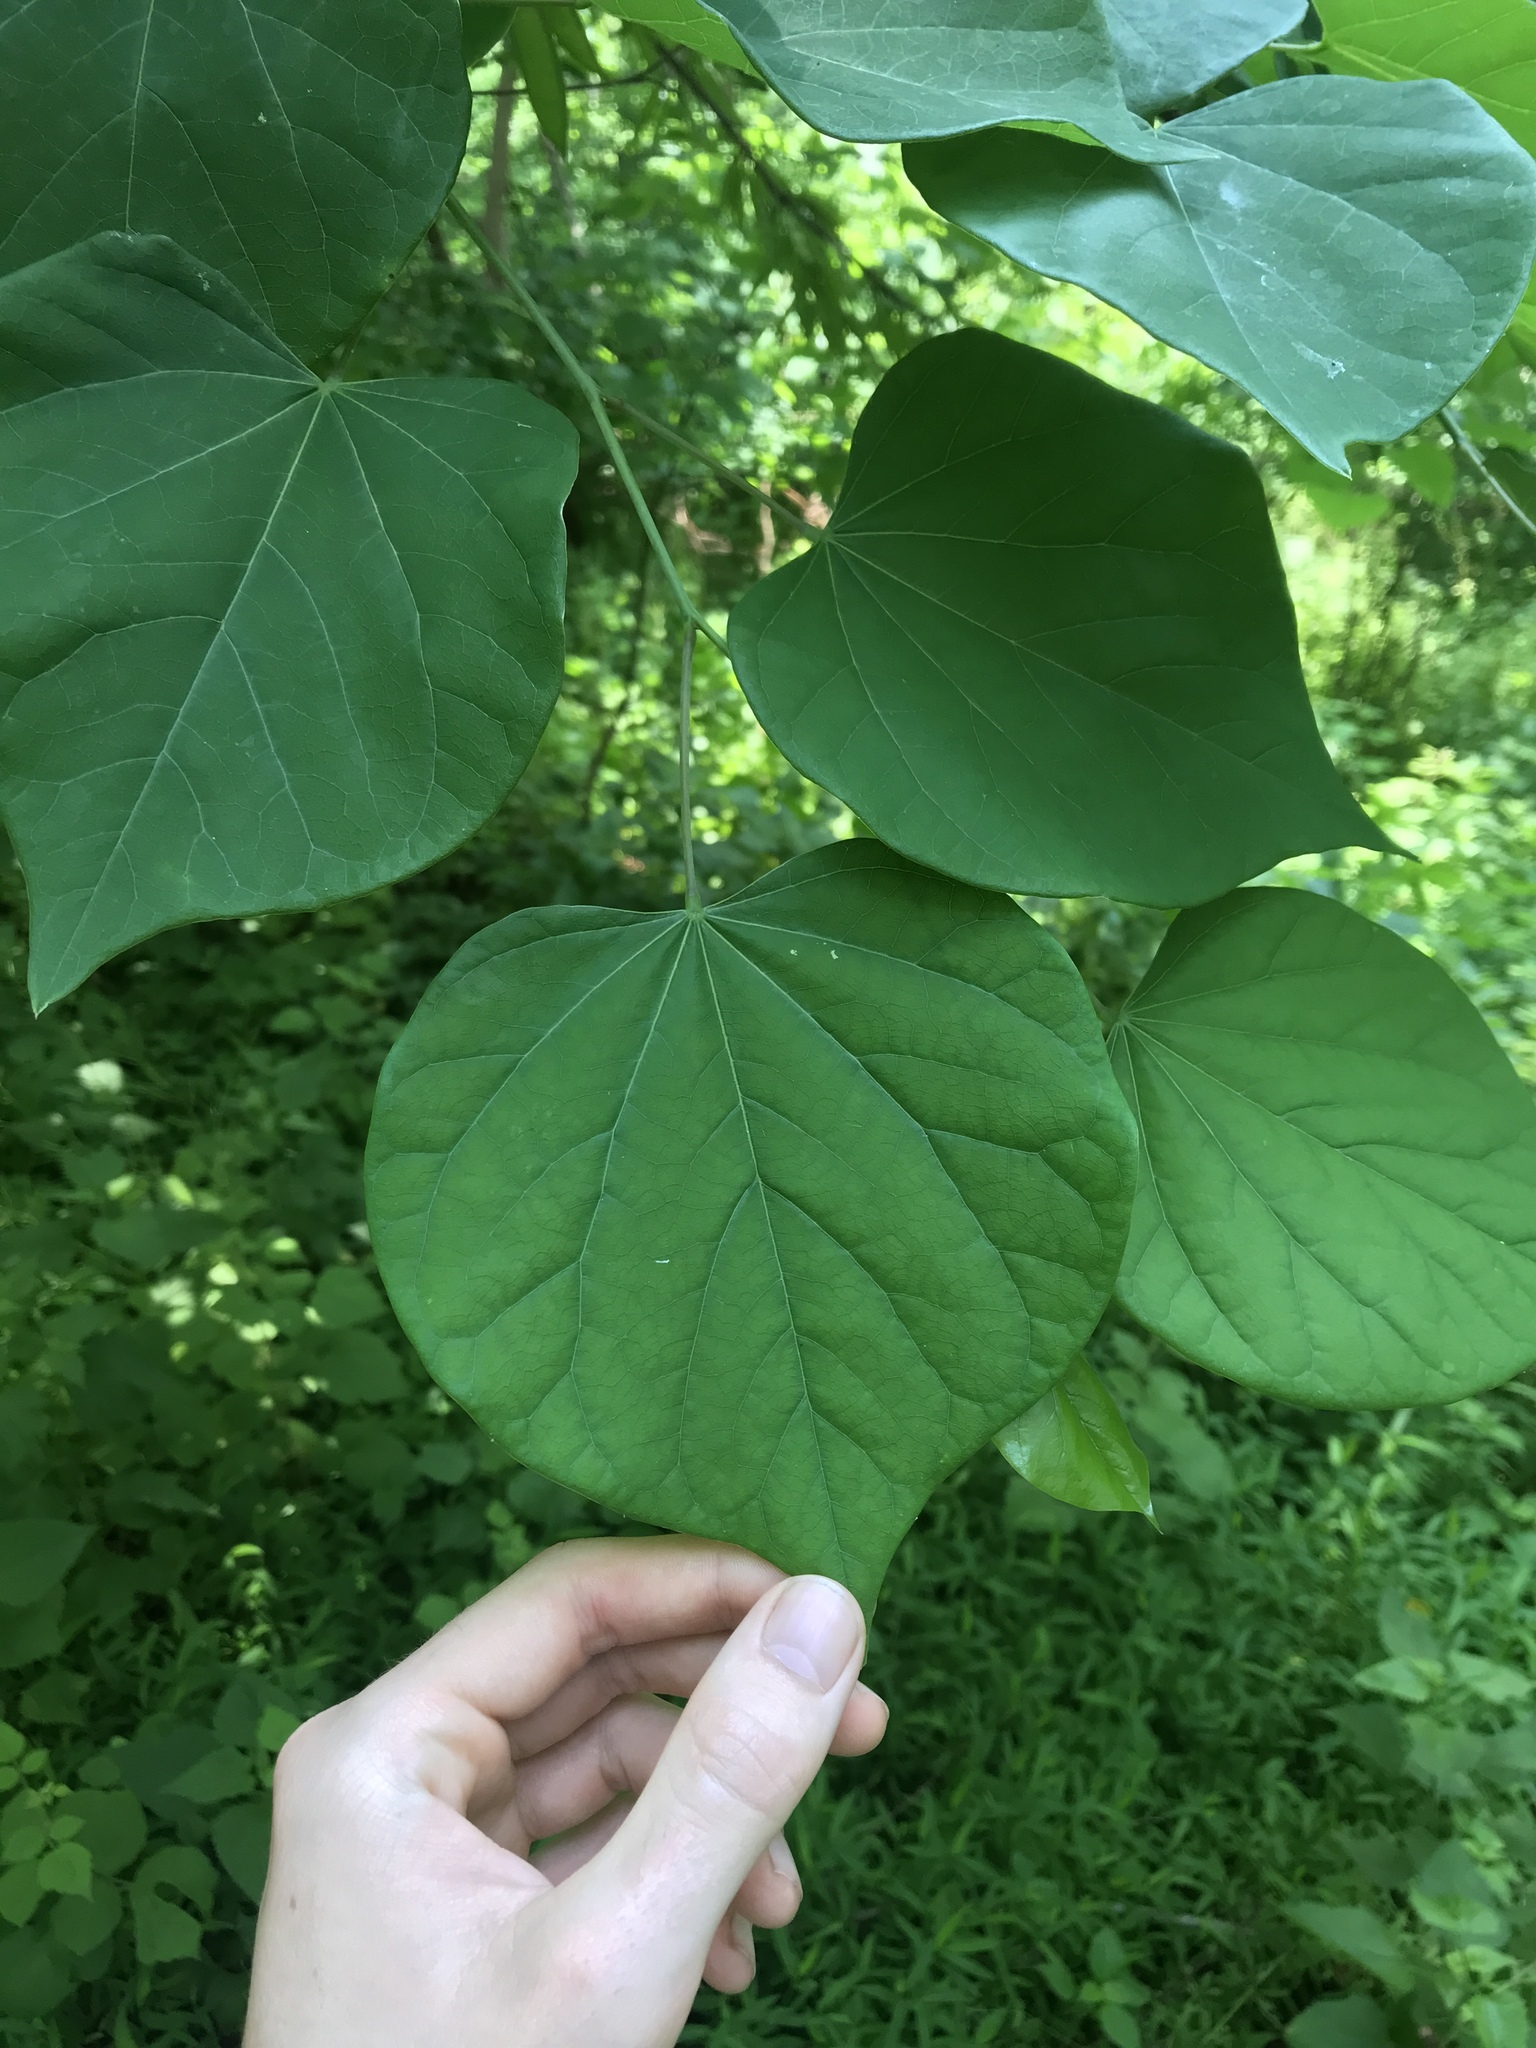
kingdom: Plantae
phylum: Tracheophyta
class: Magnoliopsida
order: Fabales
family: Fabaceae
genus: Cercis
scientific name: Cercis canadensis
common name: Eastern redbud
